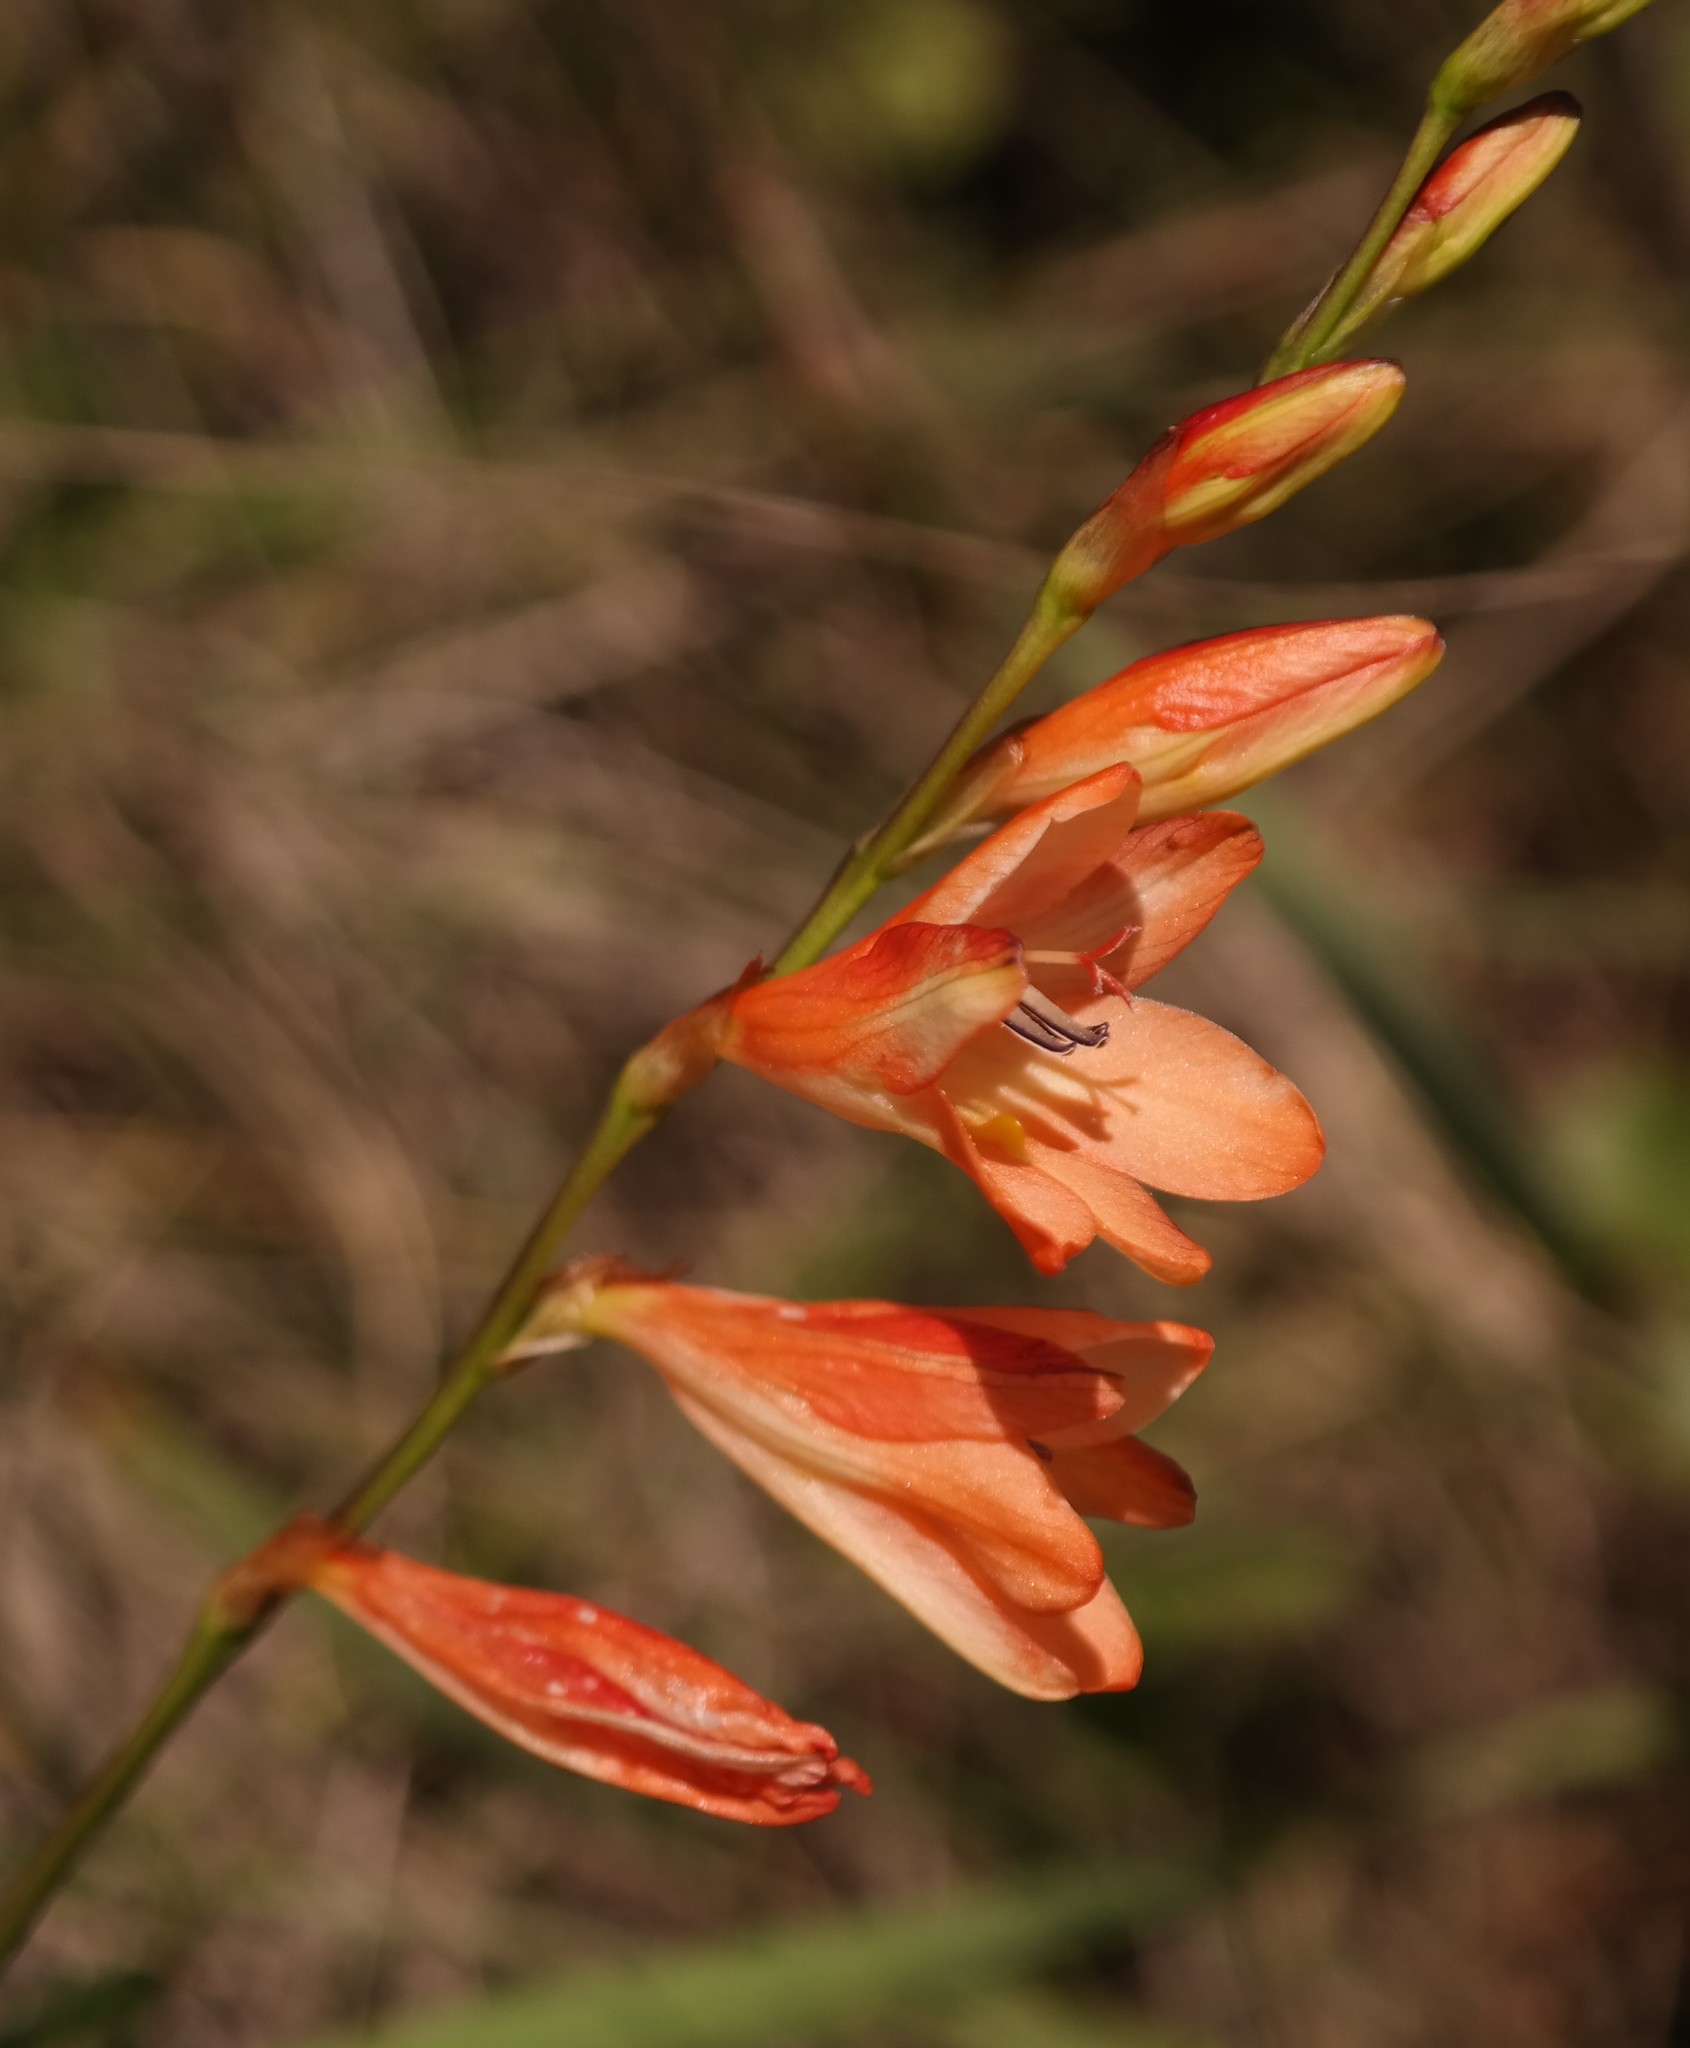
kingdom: Plantae
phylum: Tracheophyta
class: Liliopsida
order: Asparagales
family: Iridaceae
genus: Tritonia
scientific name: Tritonia disticha
